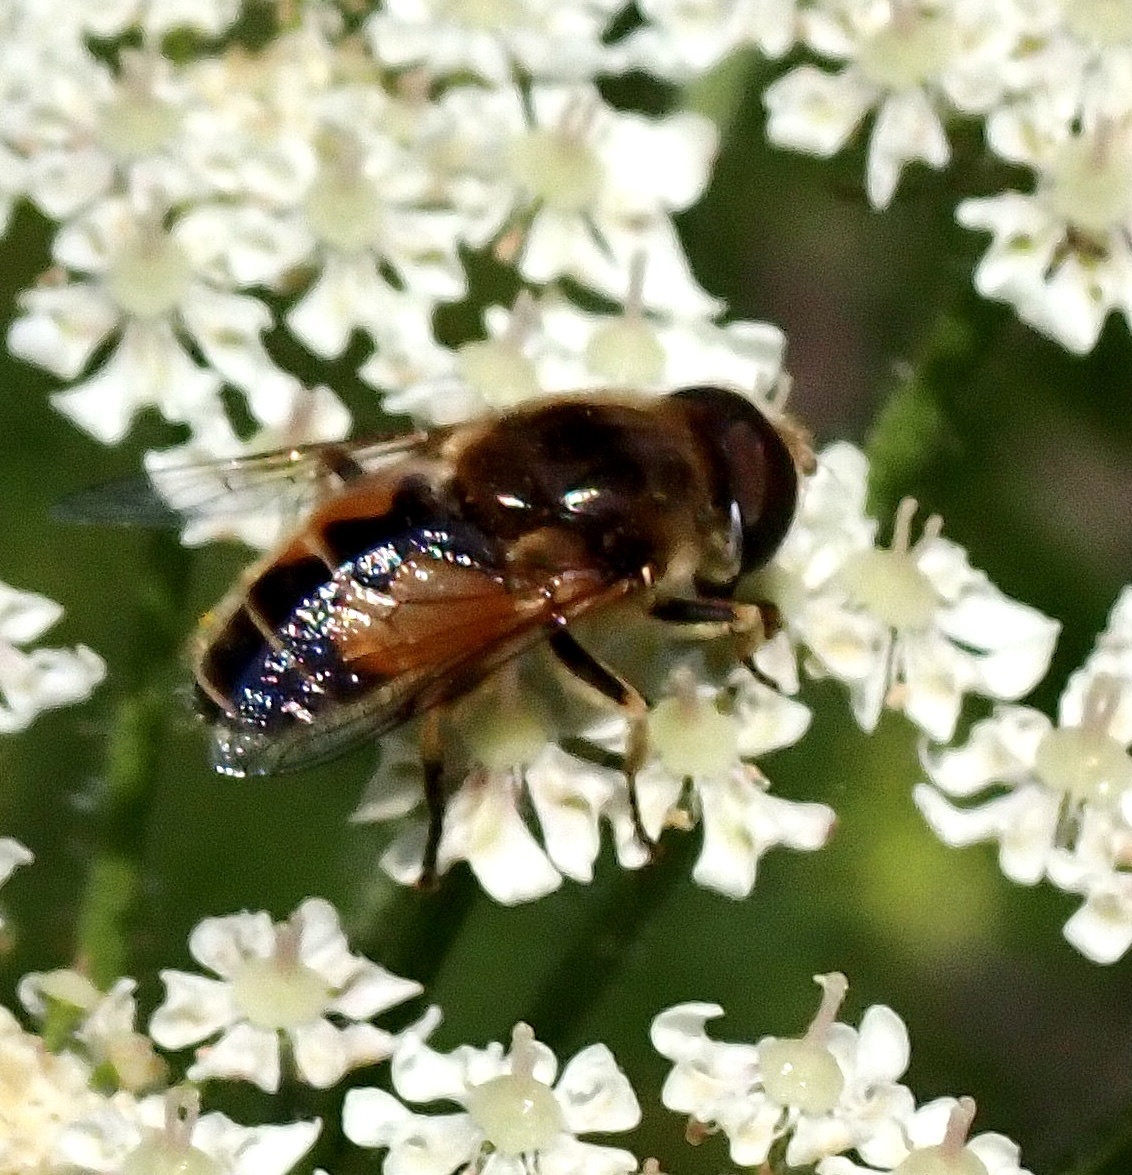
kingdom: Animalia
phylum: Arthropoda
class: Insecta
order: Diptera
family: Syrphidae
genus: Eristalis
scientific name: Eristalis tenax
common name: Drone fly
